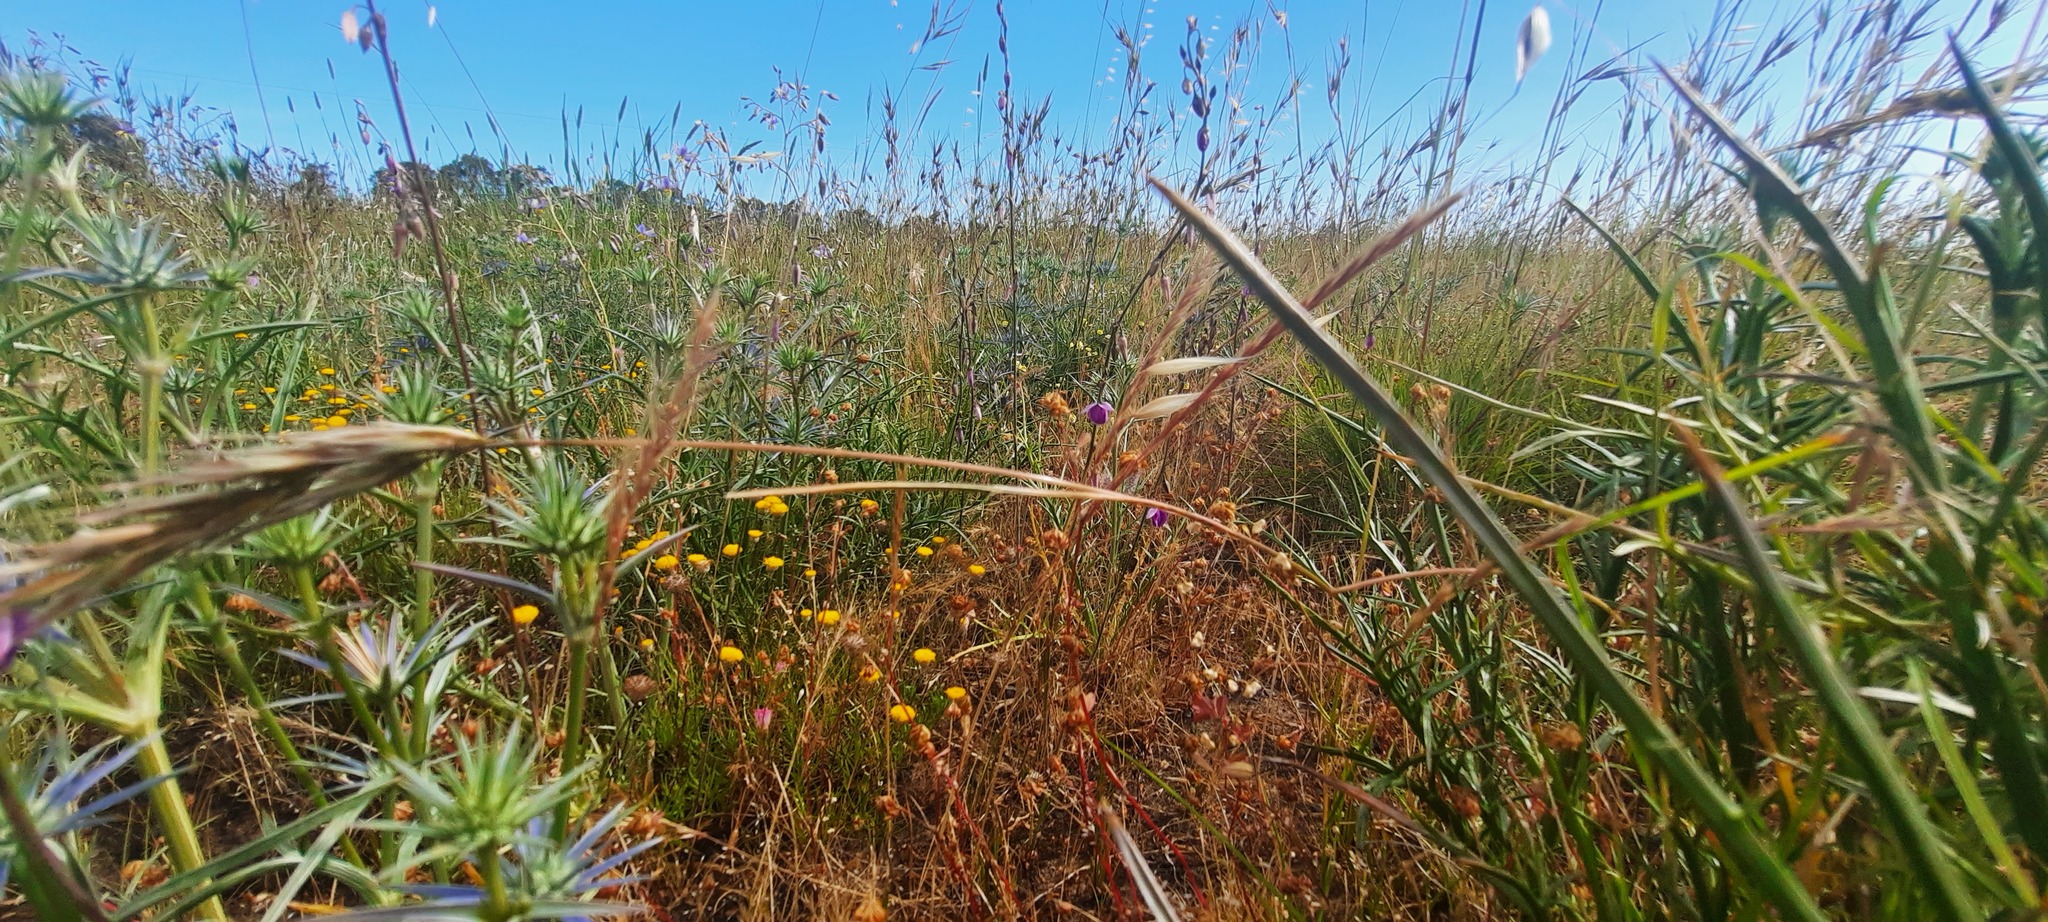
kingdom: Plantae
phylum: Tracheophyta
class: Liliopsida
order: Asparagales
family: Asparagaceae
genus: Dichopogon
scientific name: Dichopogon fimbriatus
